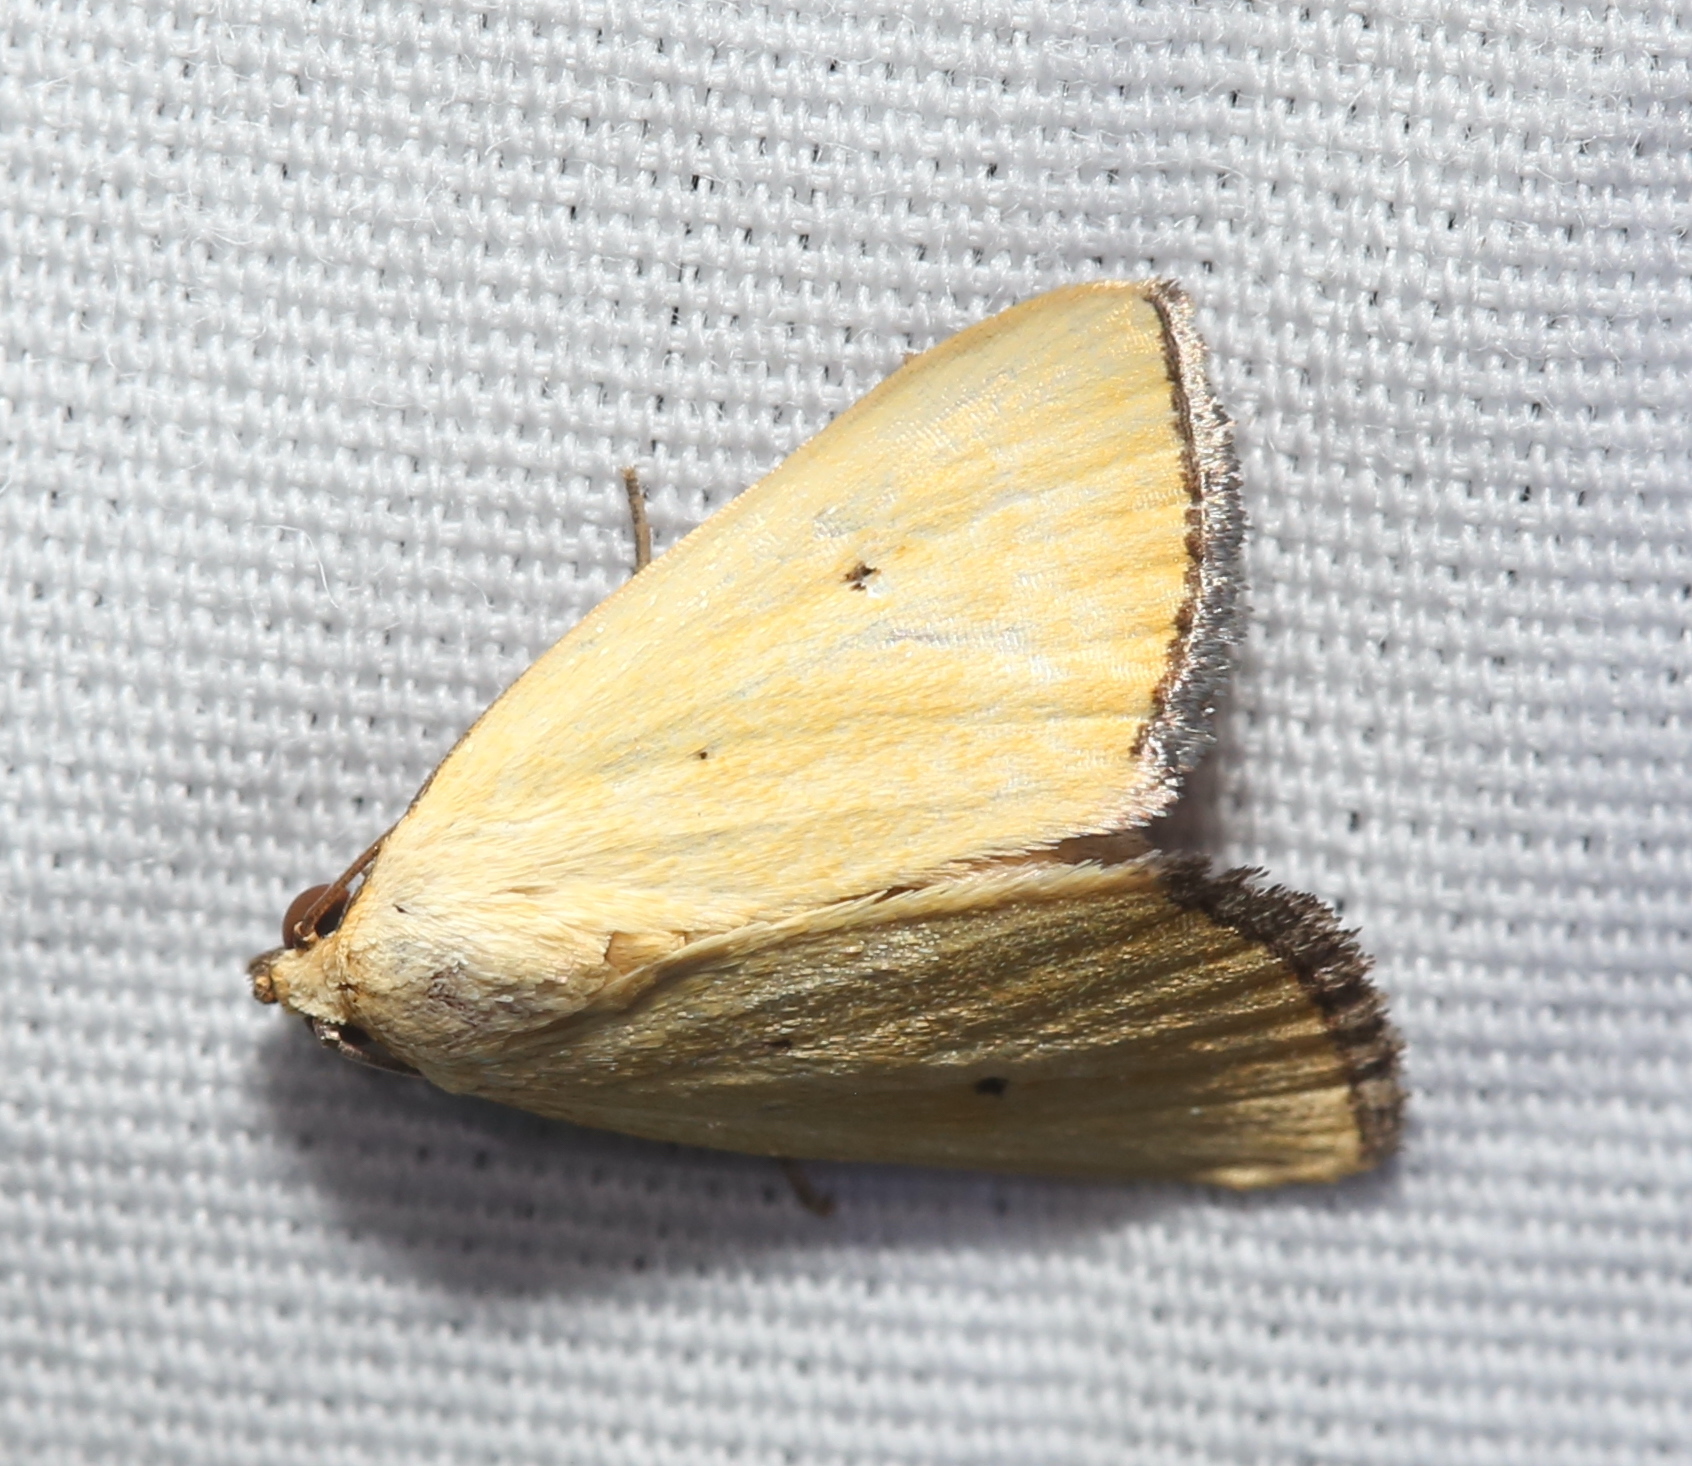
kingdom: Animalia
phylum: Arthropoda
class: Insecta
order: Lepidoptera
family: Noctuidae
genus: Marimatha
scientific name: Marimatha nigrofimbria
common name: Black-bordered lemon moth
